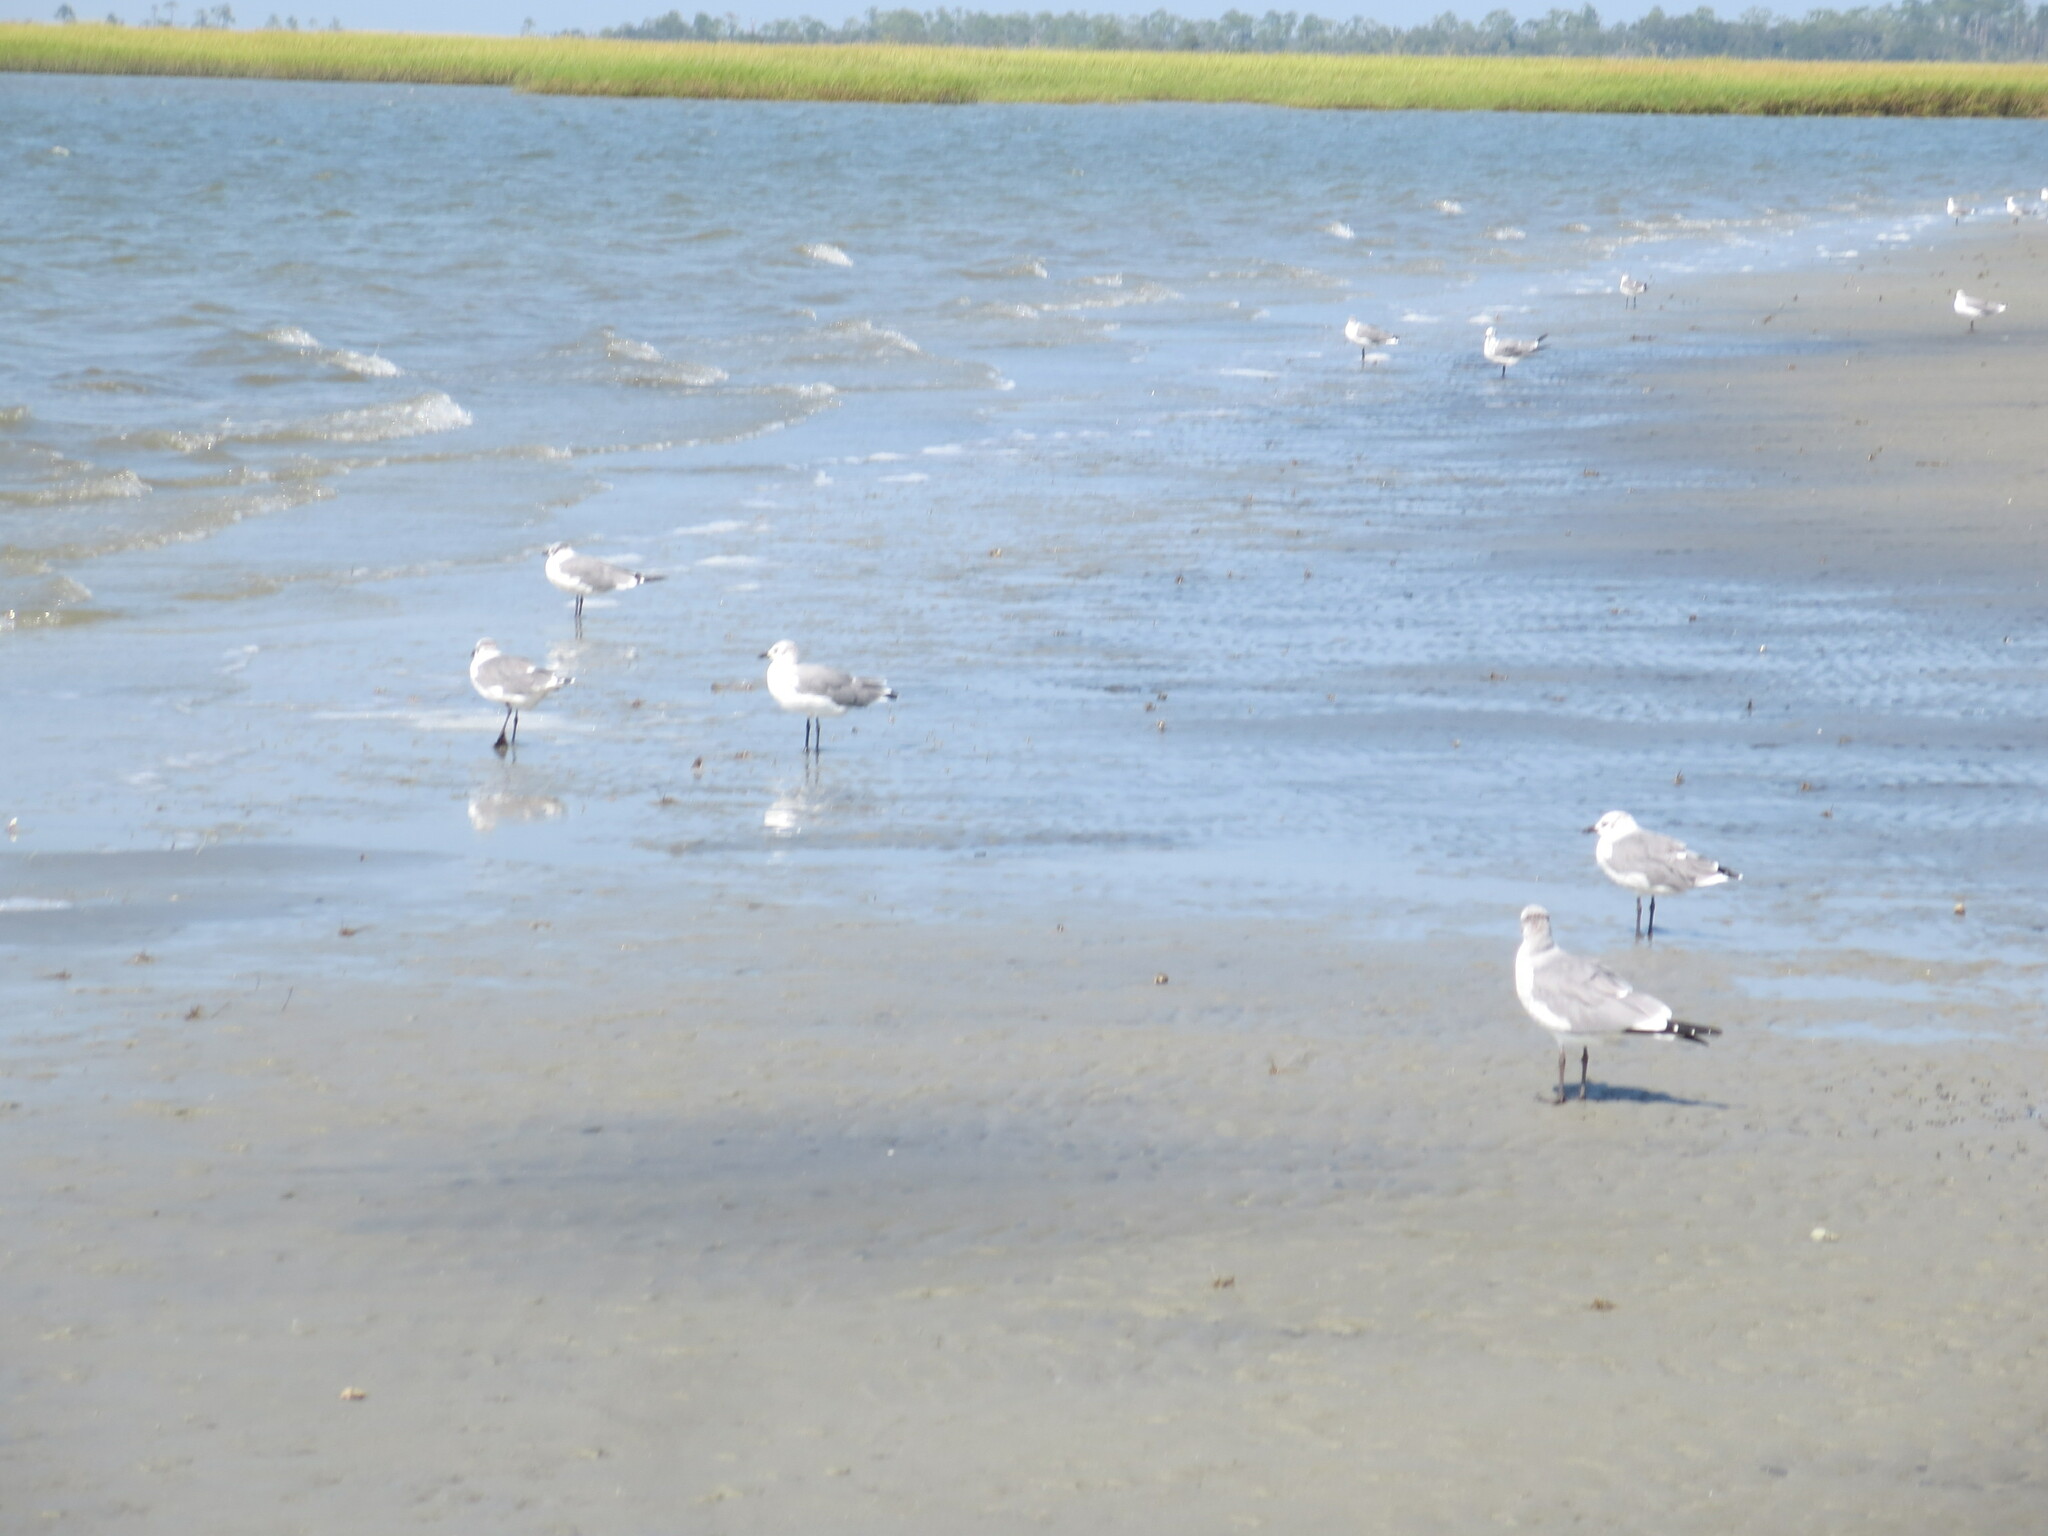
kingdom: Animalia
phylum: Chordata
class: Aves
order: Charadriiformes
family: Laridae
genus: Leucophaeus
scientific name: Leucophaeus atricilla
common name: Laughing gull
